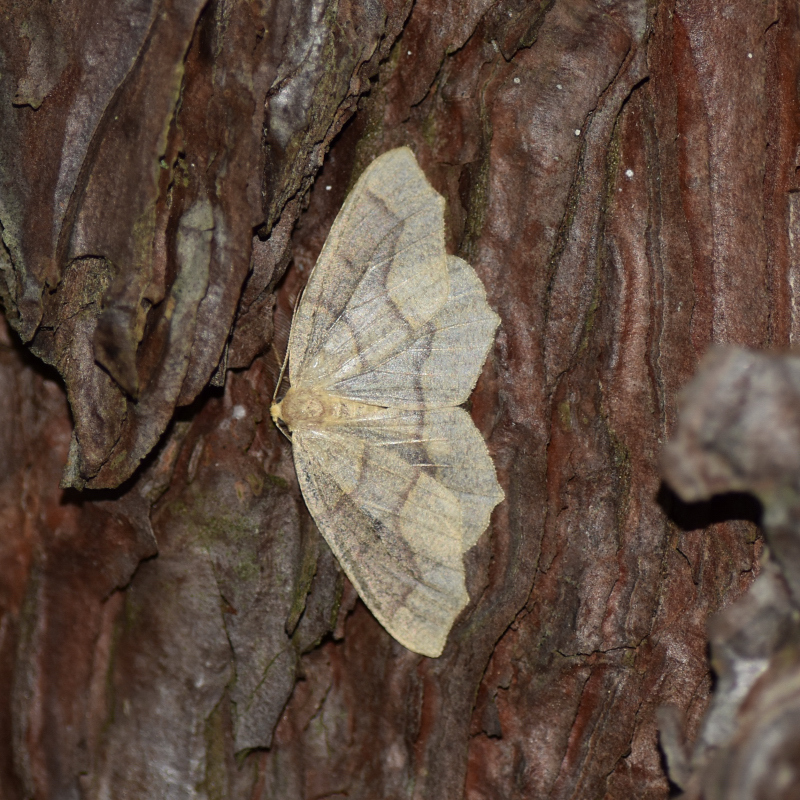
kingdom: Animalia
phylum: Arthropoda
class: Insecta
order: Lepidoptera
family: Geometridae
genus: Lambdina
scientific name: Lambdina fiscellaria
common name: Hemlock looper
